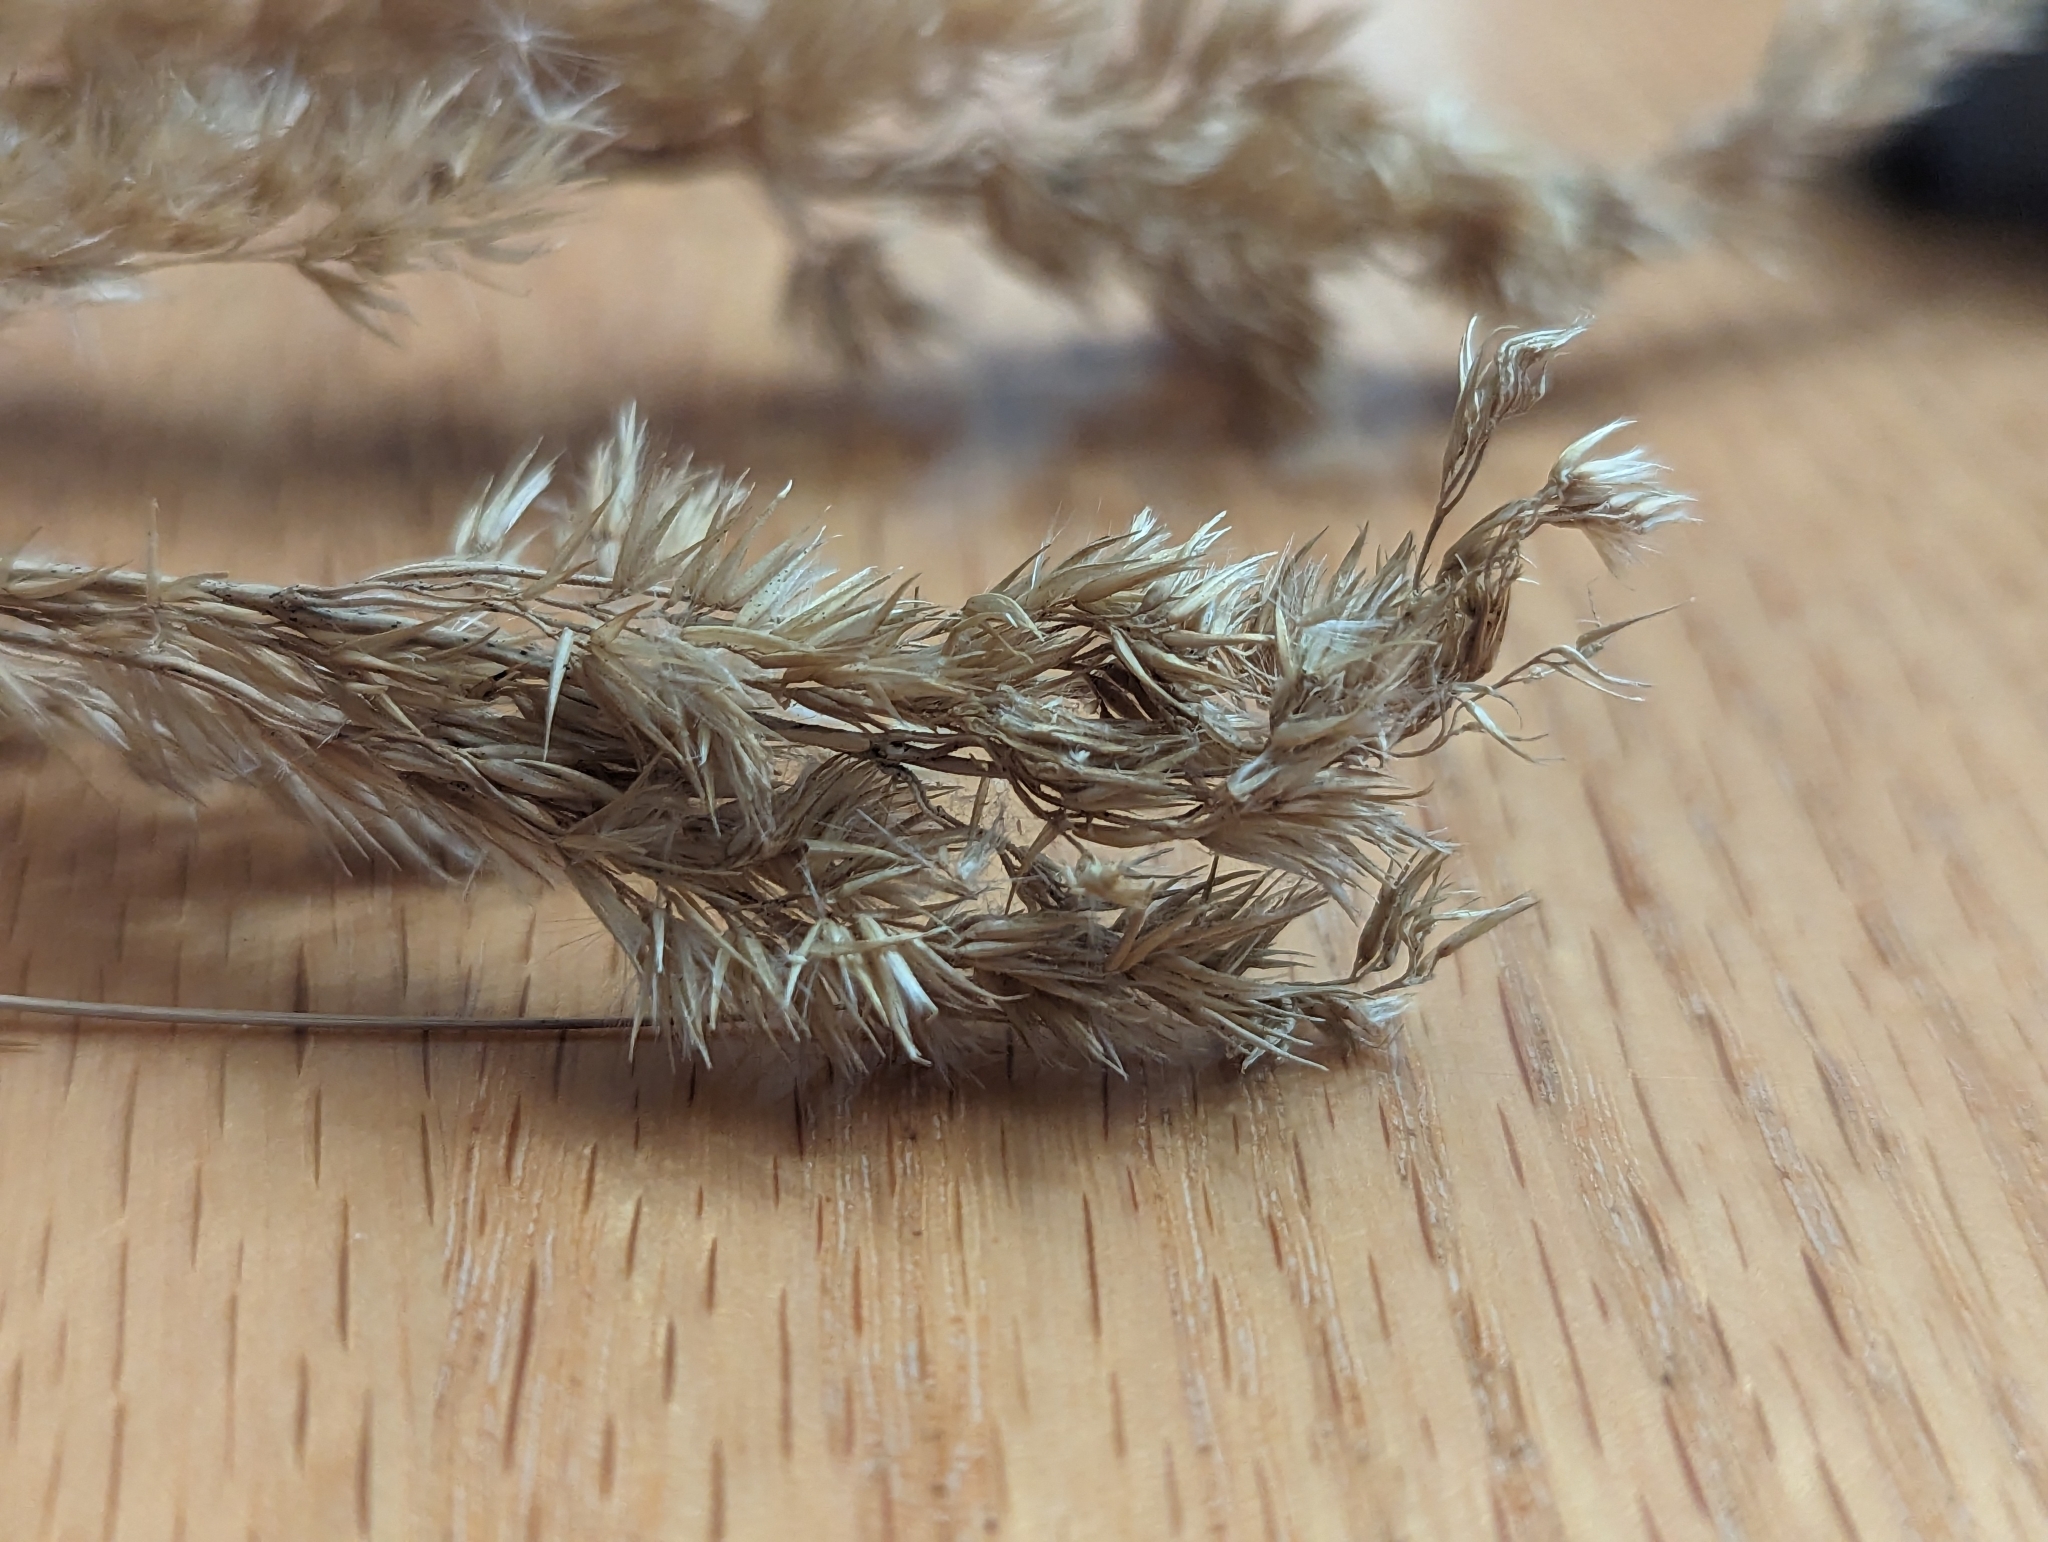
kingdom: Plantae
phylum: Tracheophyta
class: Liliopsida
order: Poales
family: Poaceae
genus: Calamagrostis
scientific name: Calamagrostis epigejos
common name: Wood small-reed
